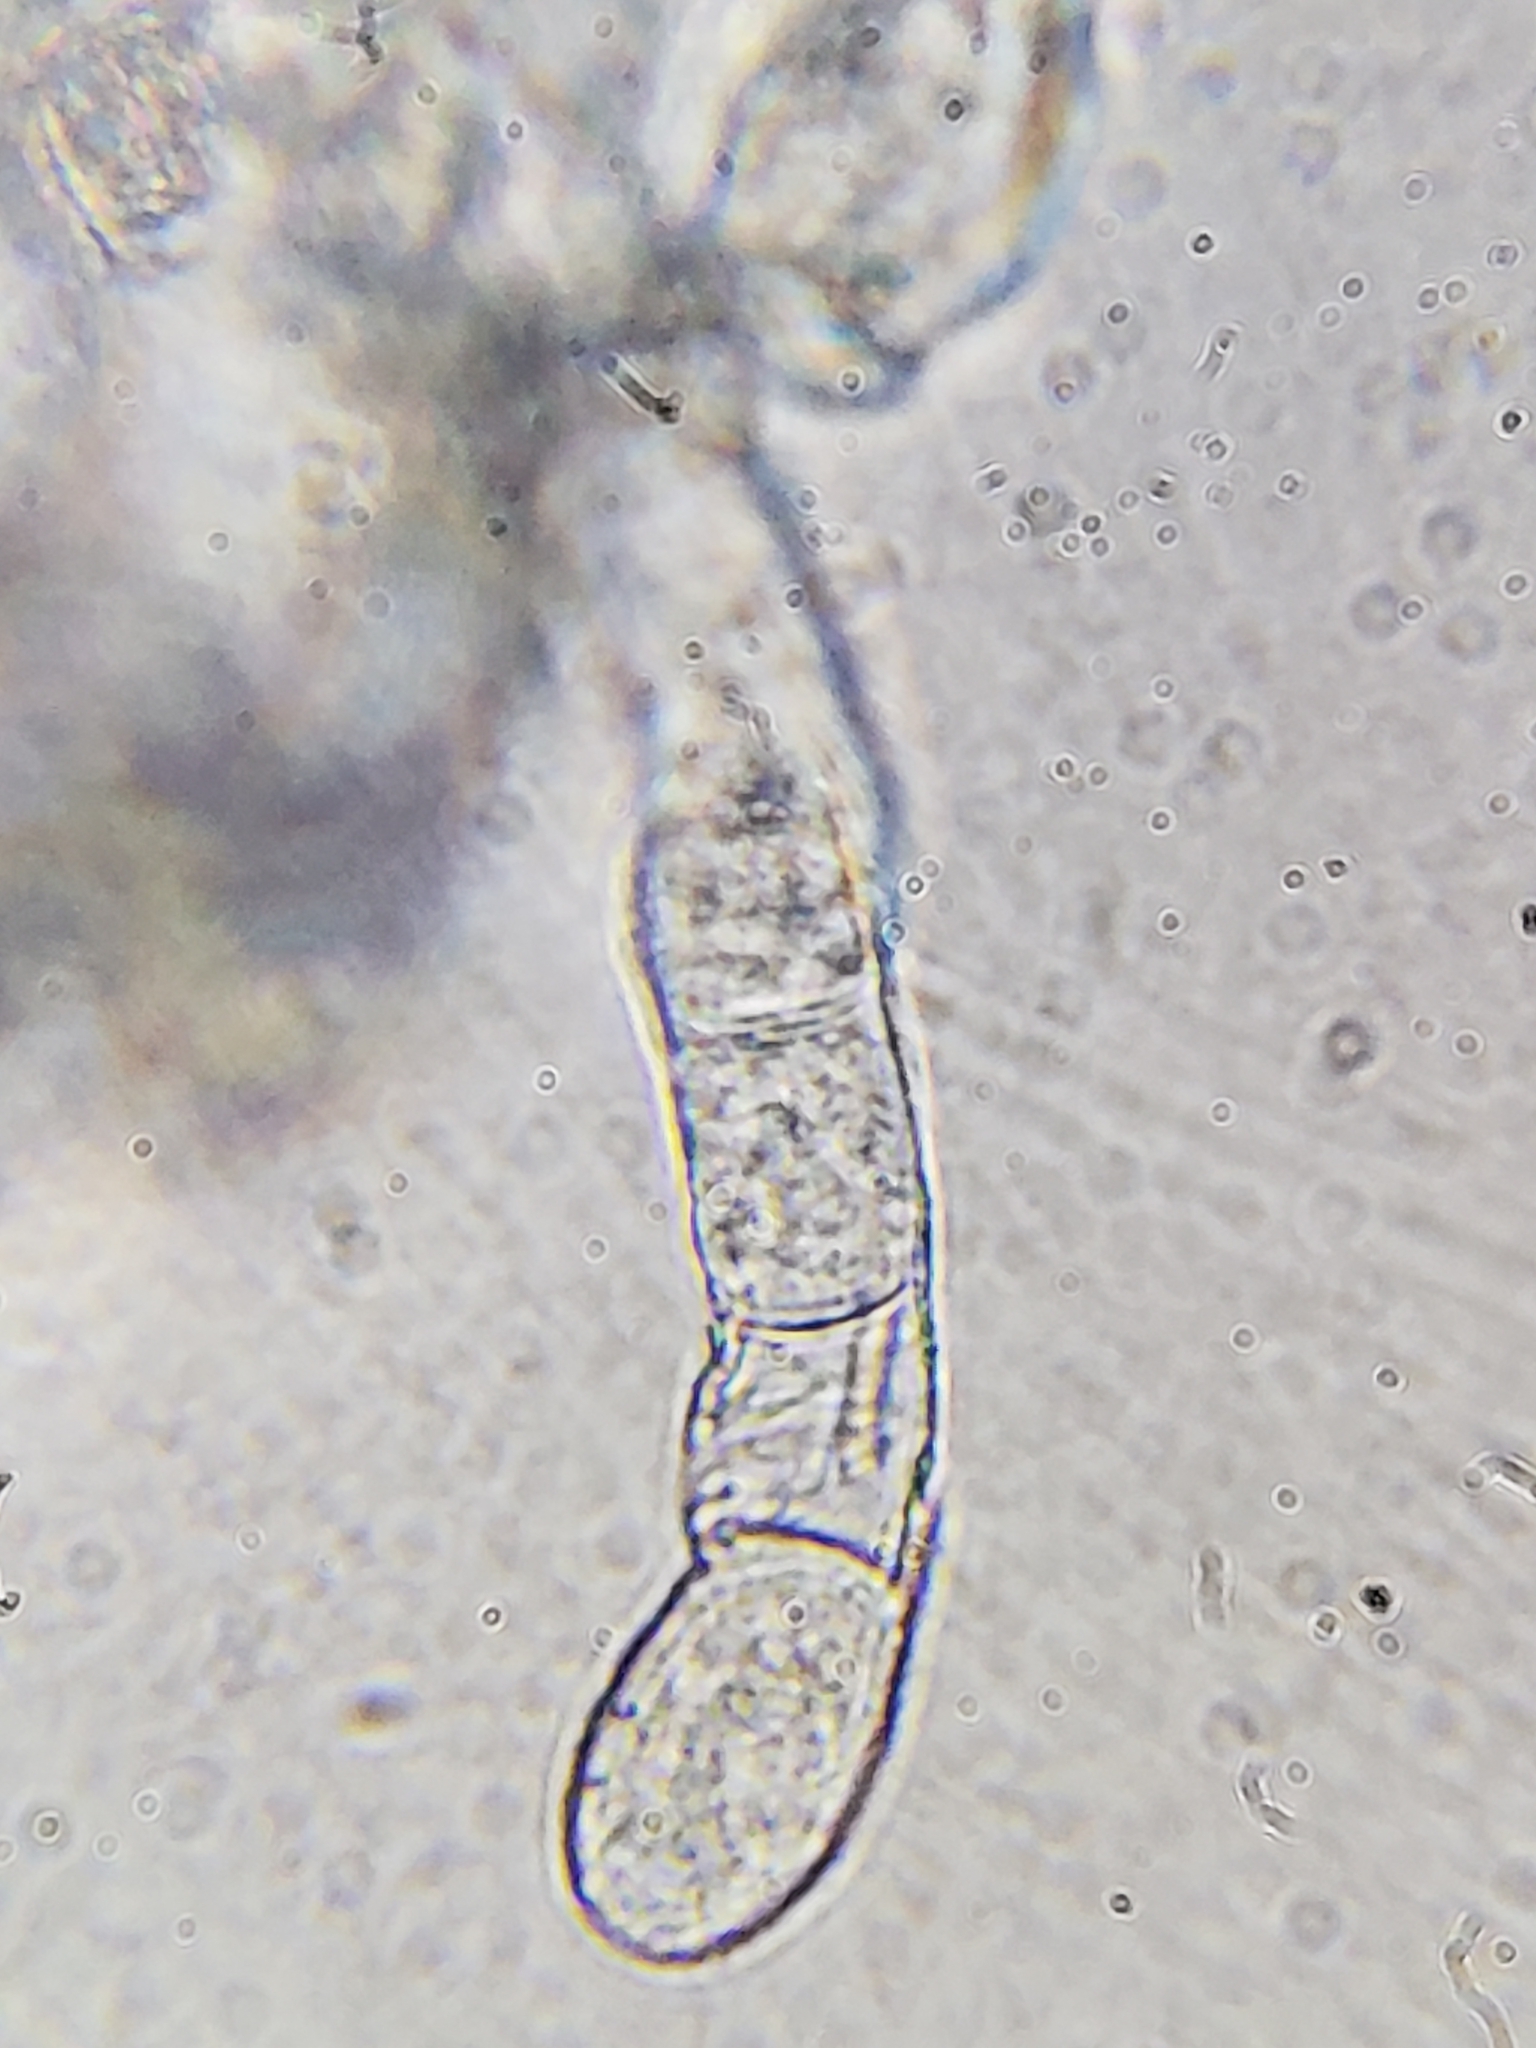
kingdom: Fungi
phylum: Ascomycota
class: Leotiomycetes
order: Helotiales
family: Erysiphaceae
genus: Golovinomyces
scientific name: Golovinomyces hydrophyllacearum
